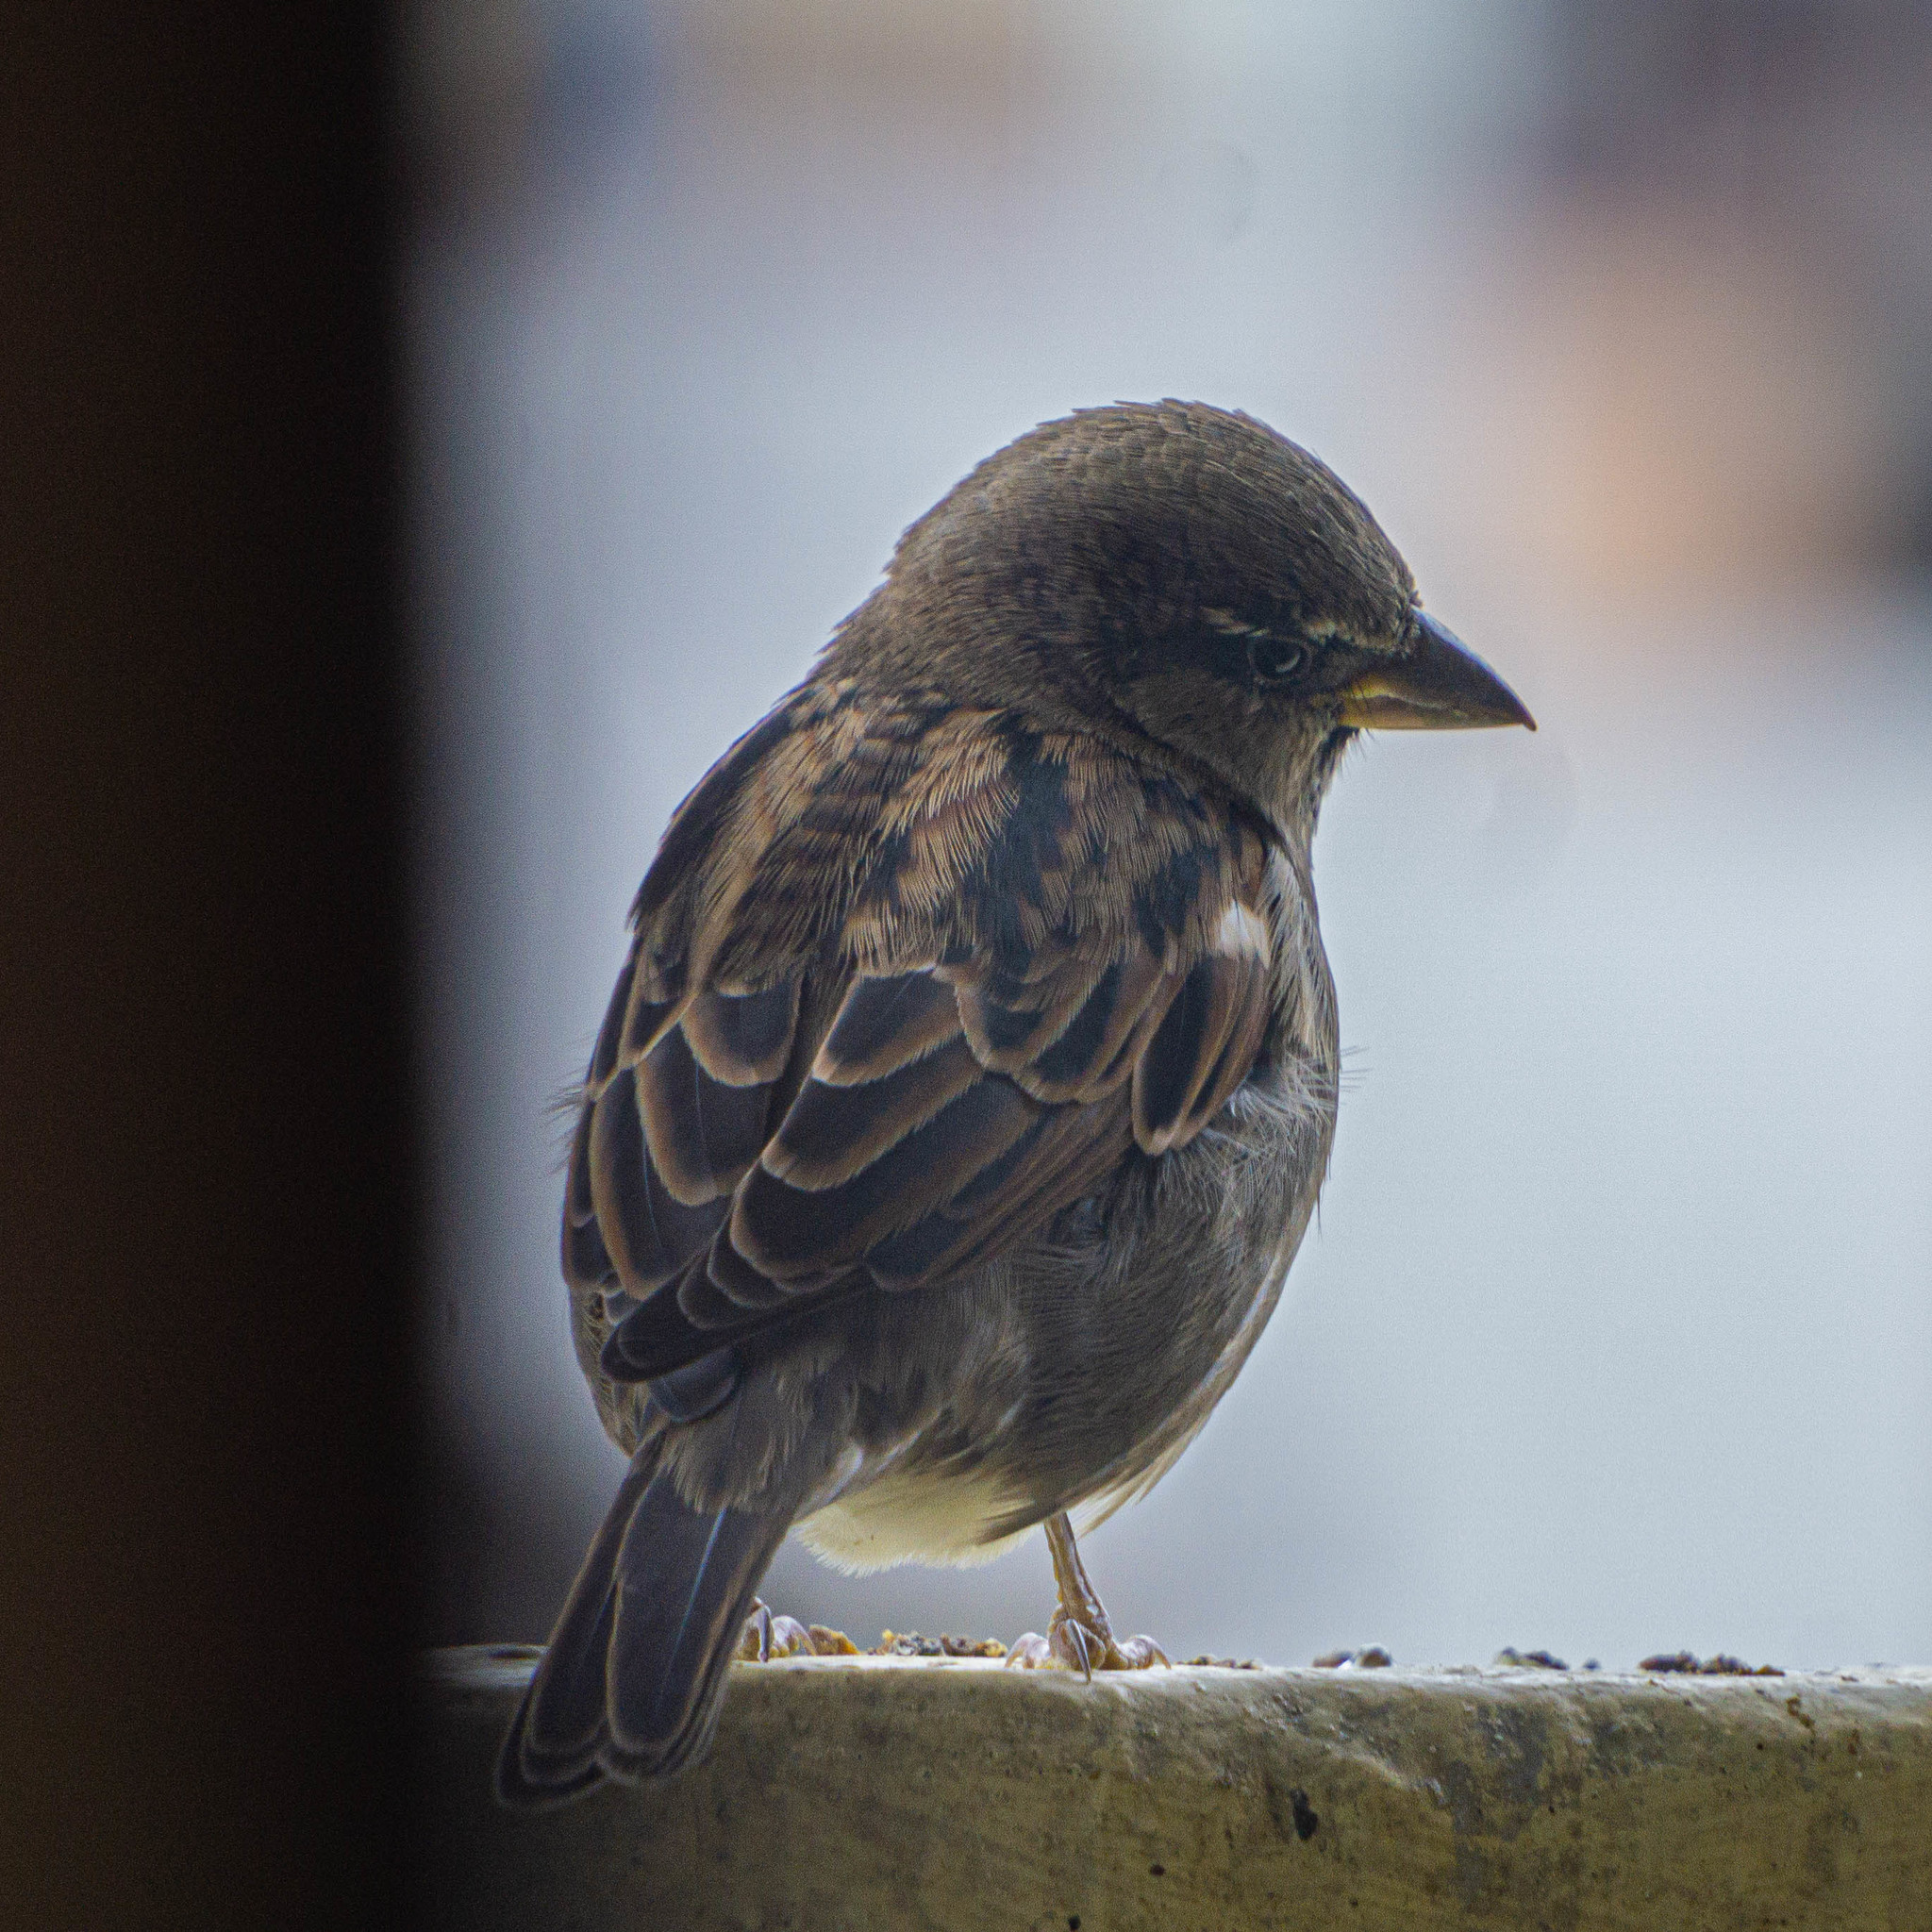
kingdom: Animalia
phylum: Chordata
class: Aves
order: Passeriformes
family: Passeridae
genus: Passer
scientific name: Passer domesticus
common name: House sparrow
